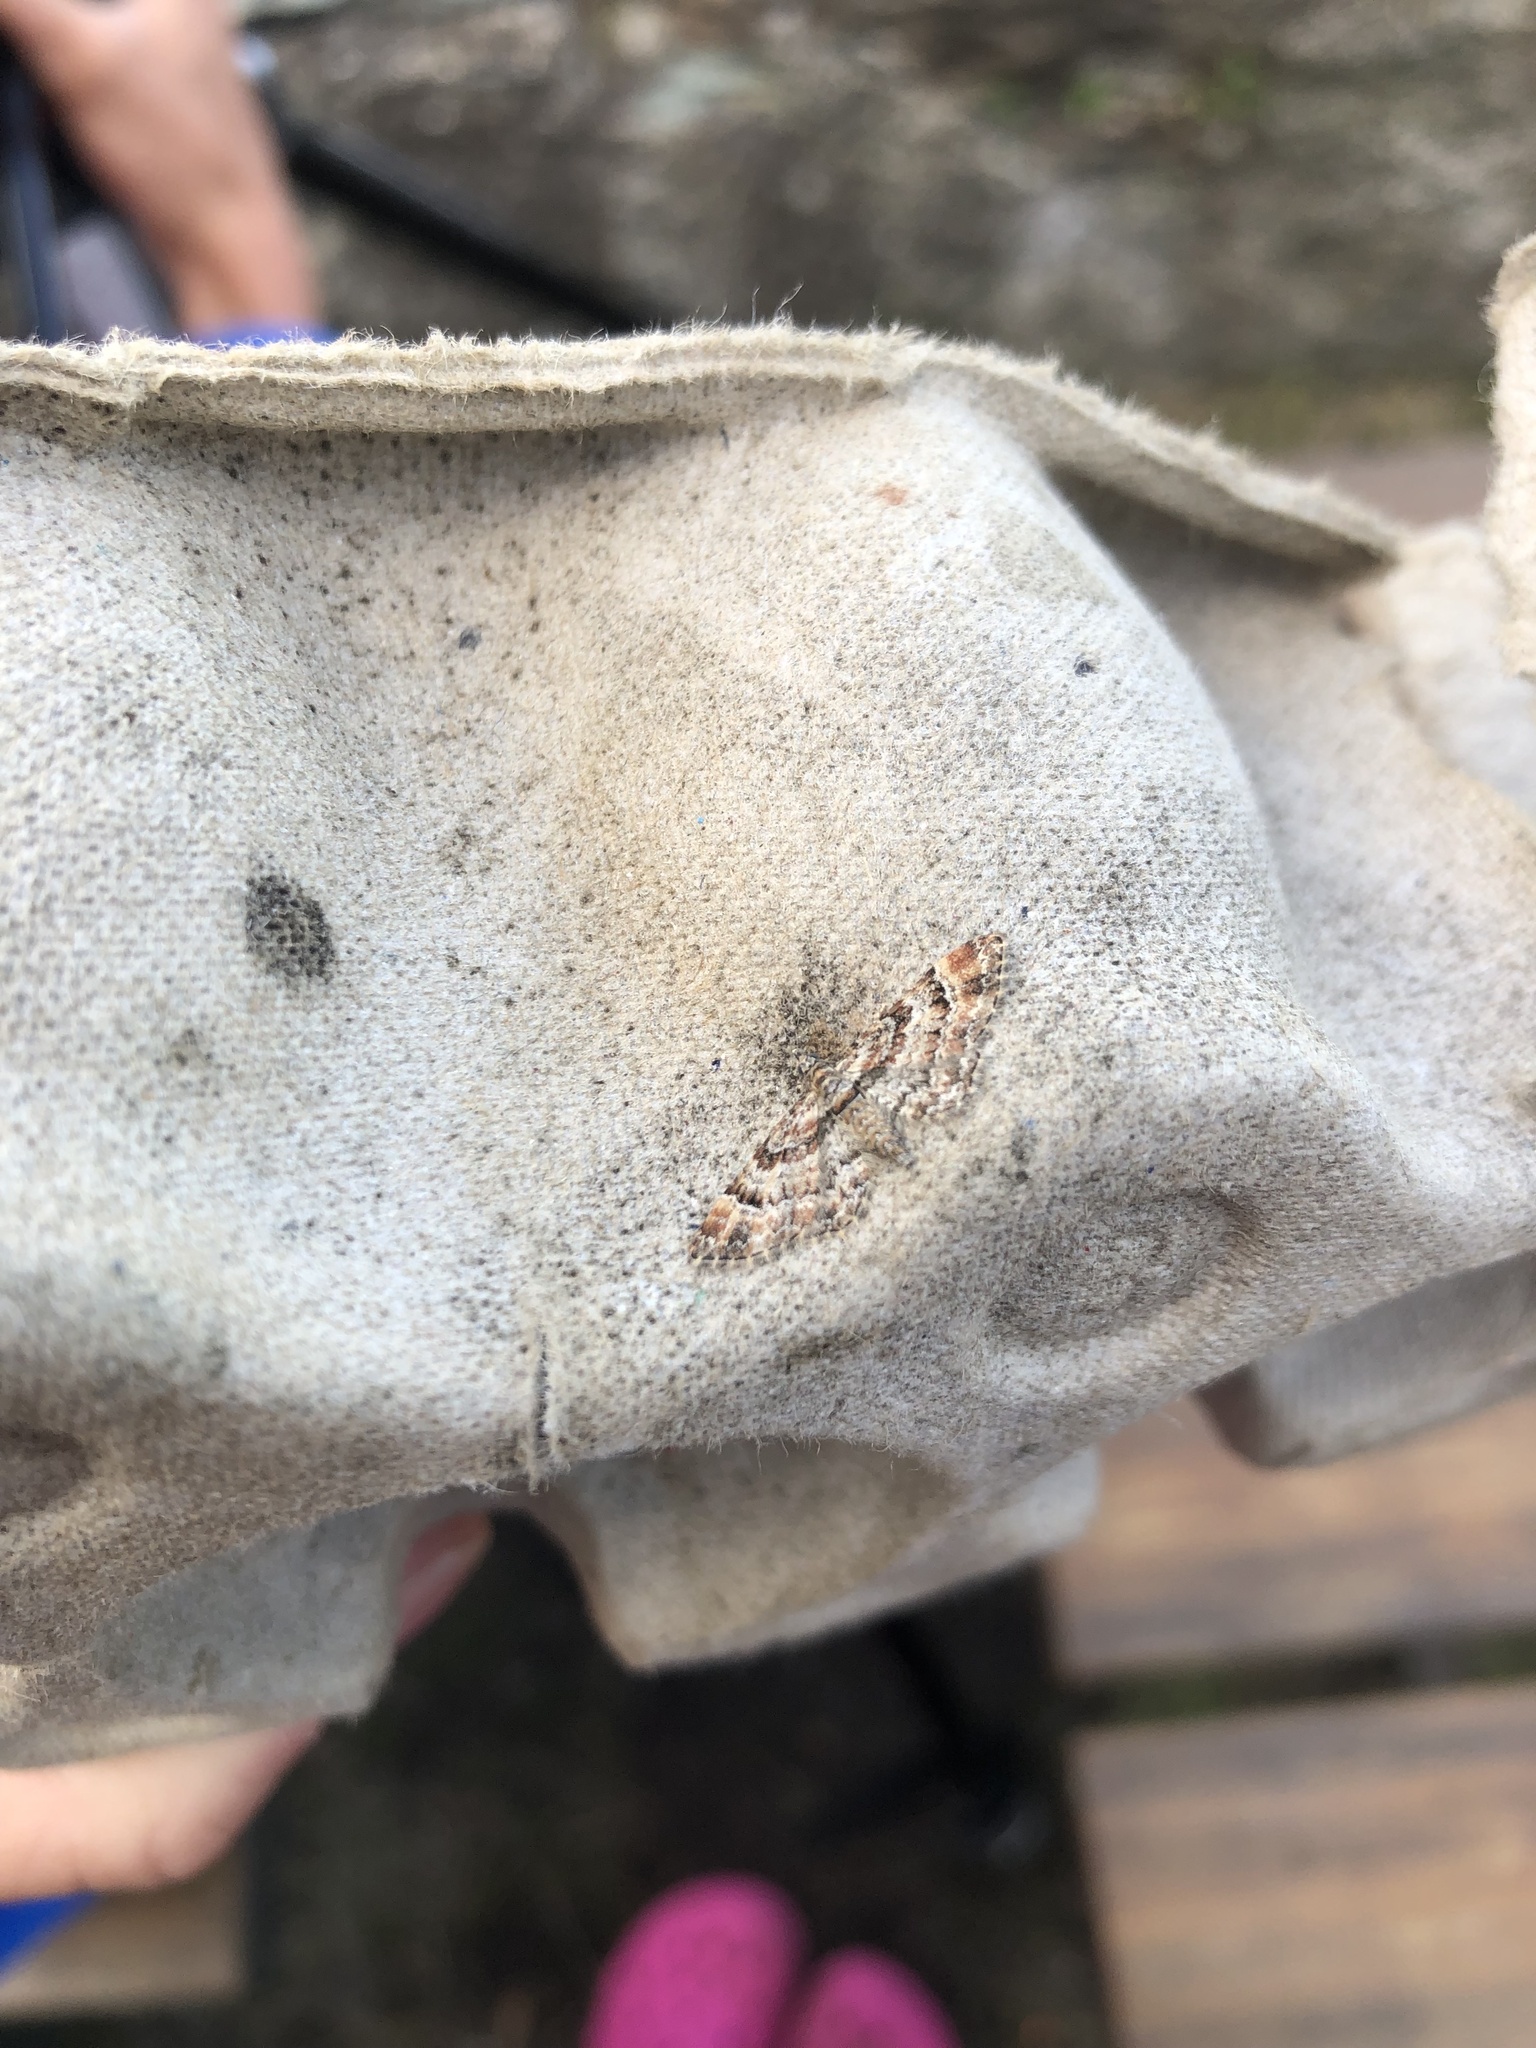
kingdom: Animalia
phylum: Arthropoda
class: Insecta
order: Lepidoptera
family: Geometridae
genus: Gymnoscelis
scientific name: Gymnoscelis rufifasciata
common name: Double-striped pug
